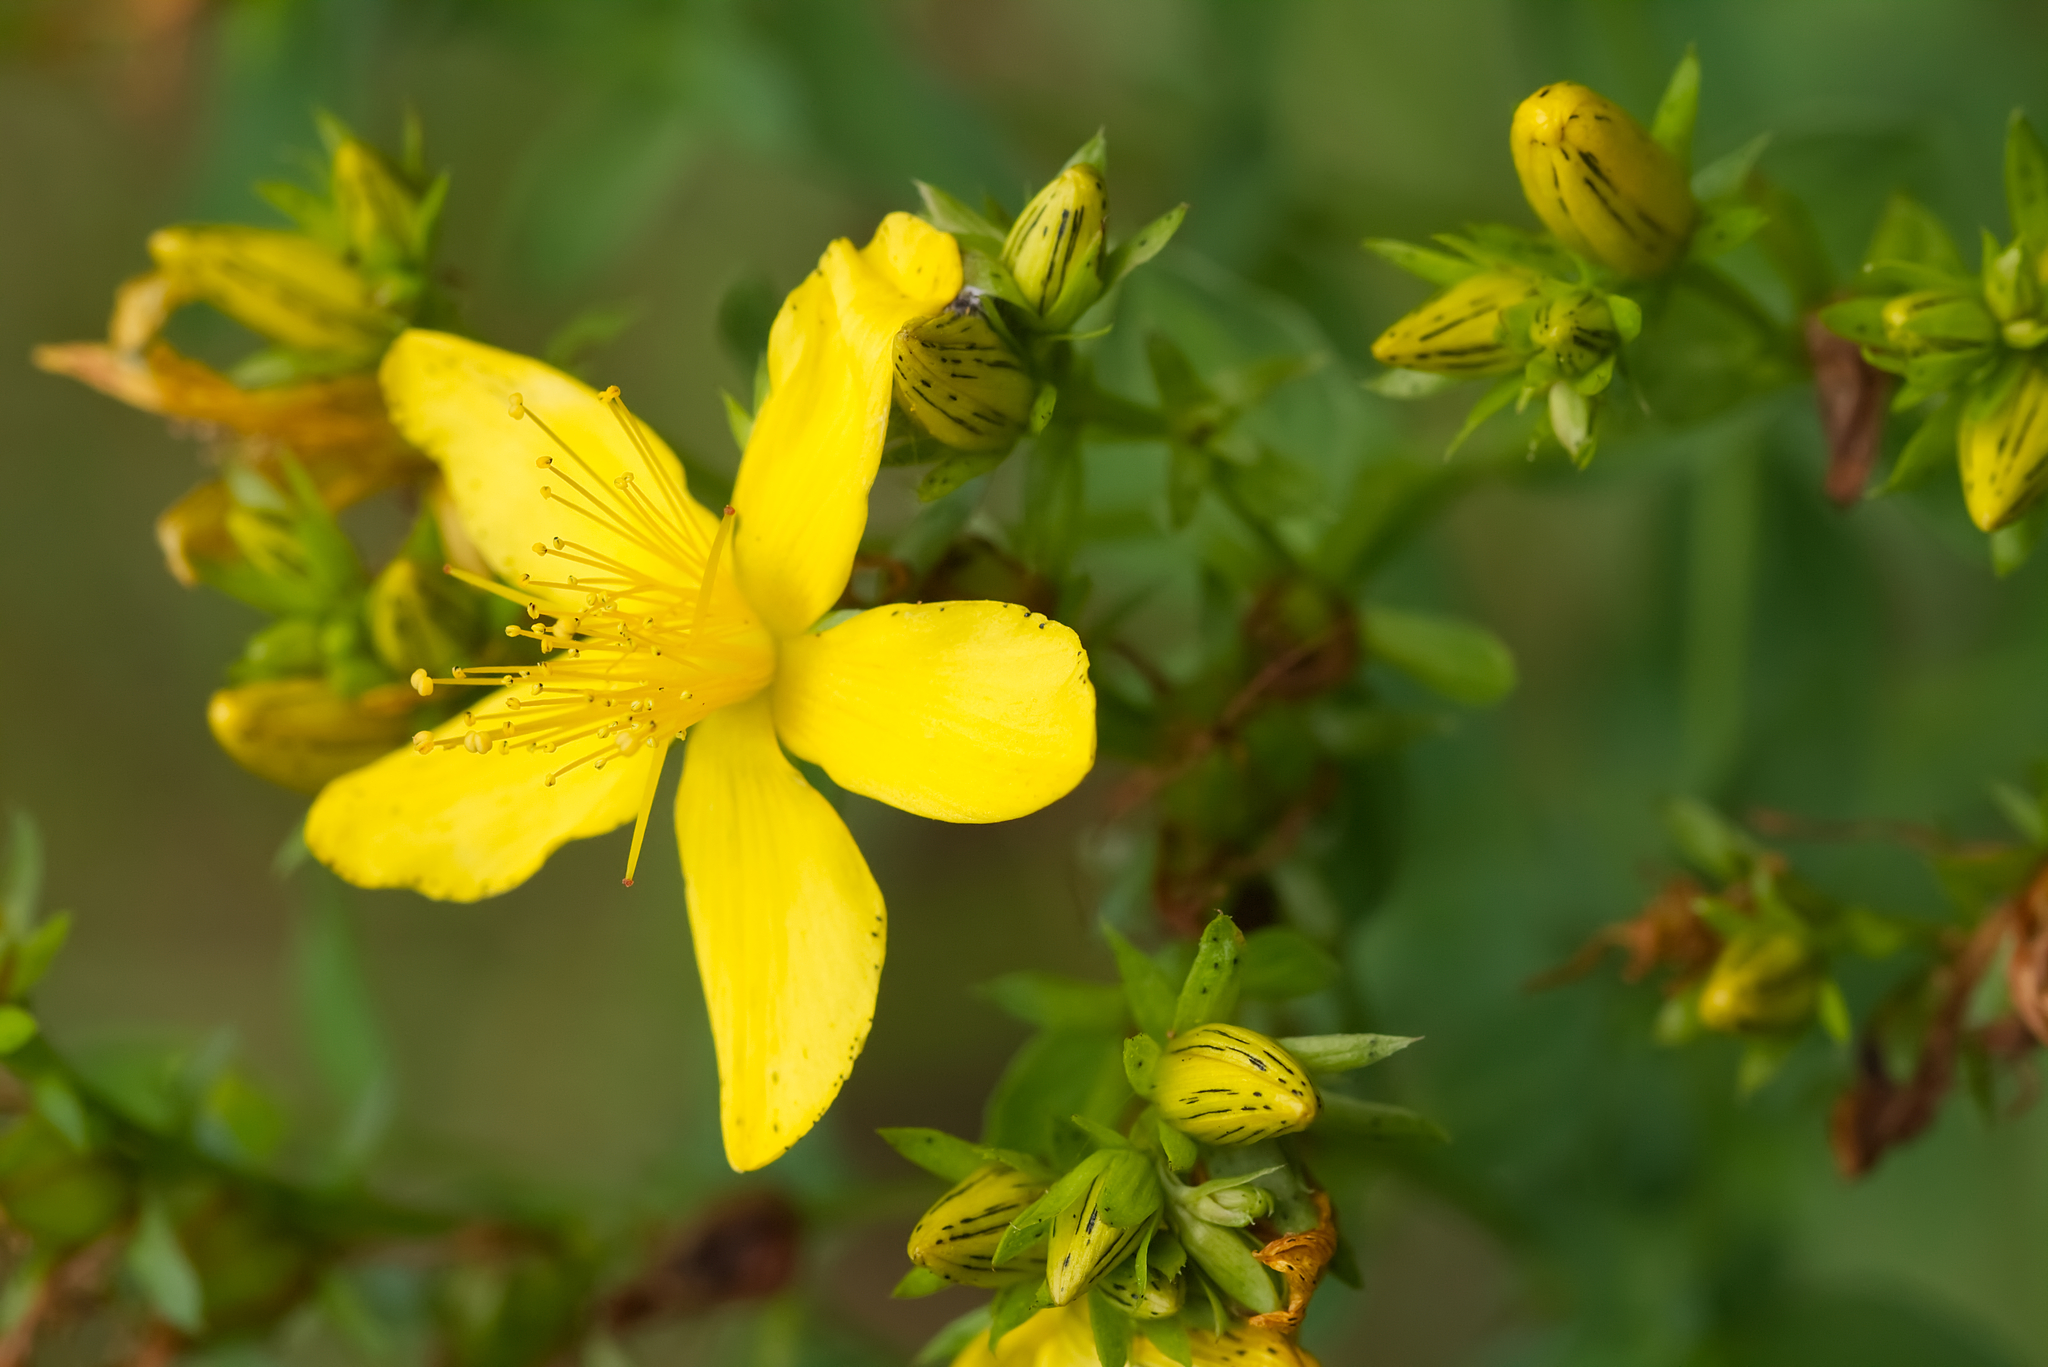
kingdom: Plantae
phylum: Tracheophyta
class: Magnoliopsida
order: Malpighiales
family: Hypericaceae
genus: Hypericum
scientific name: Hypericum desetangsii
